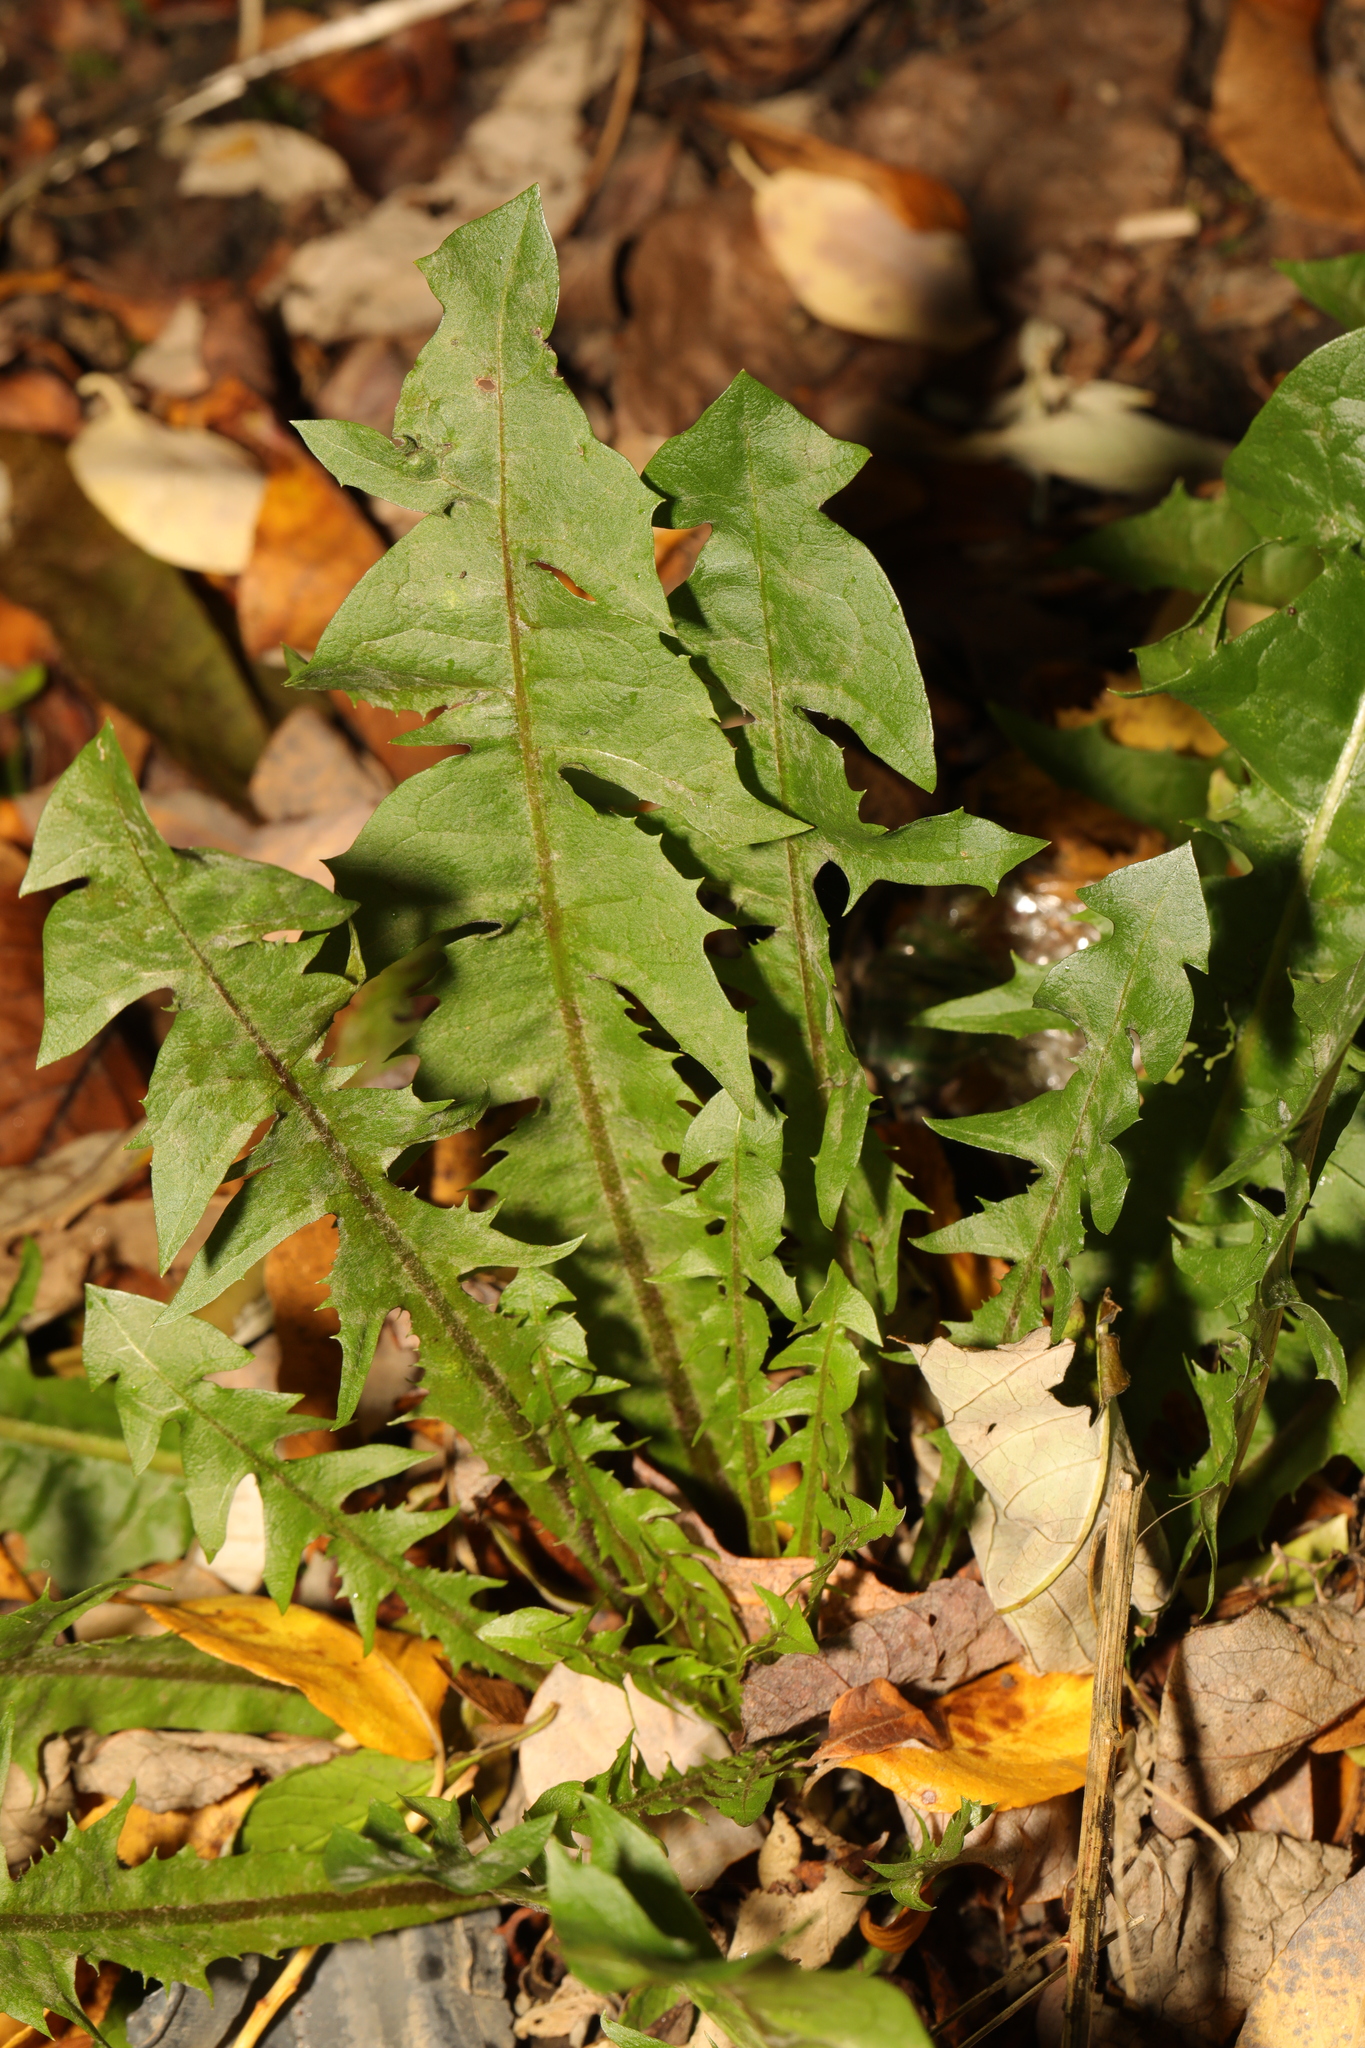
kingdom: Plantae
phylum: Tracheophyta
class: Magnoliopsida
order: Asterales
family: Asteraceae
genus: Taraxacum
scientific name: Taraxacum officinale
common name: Common dandelion
